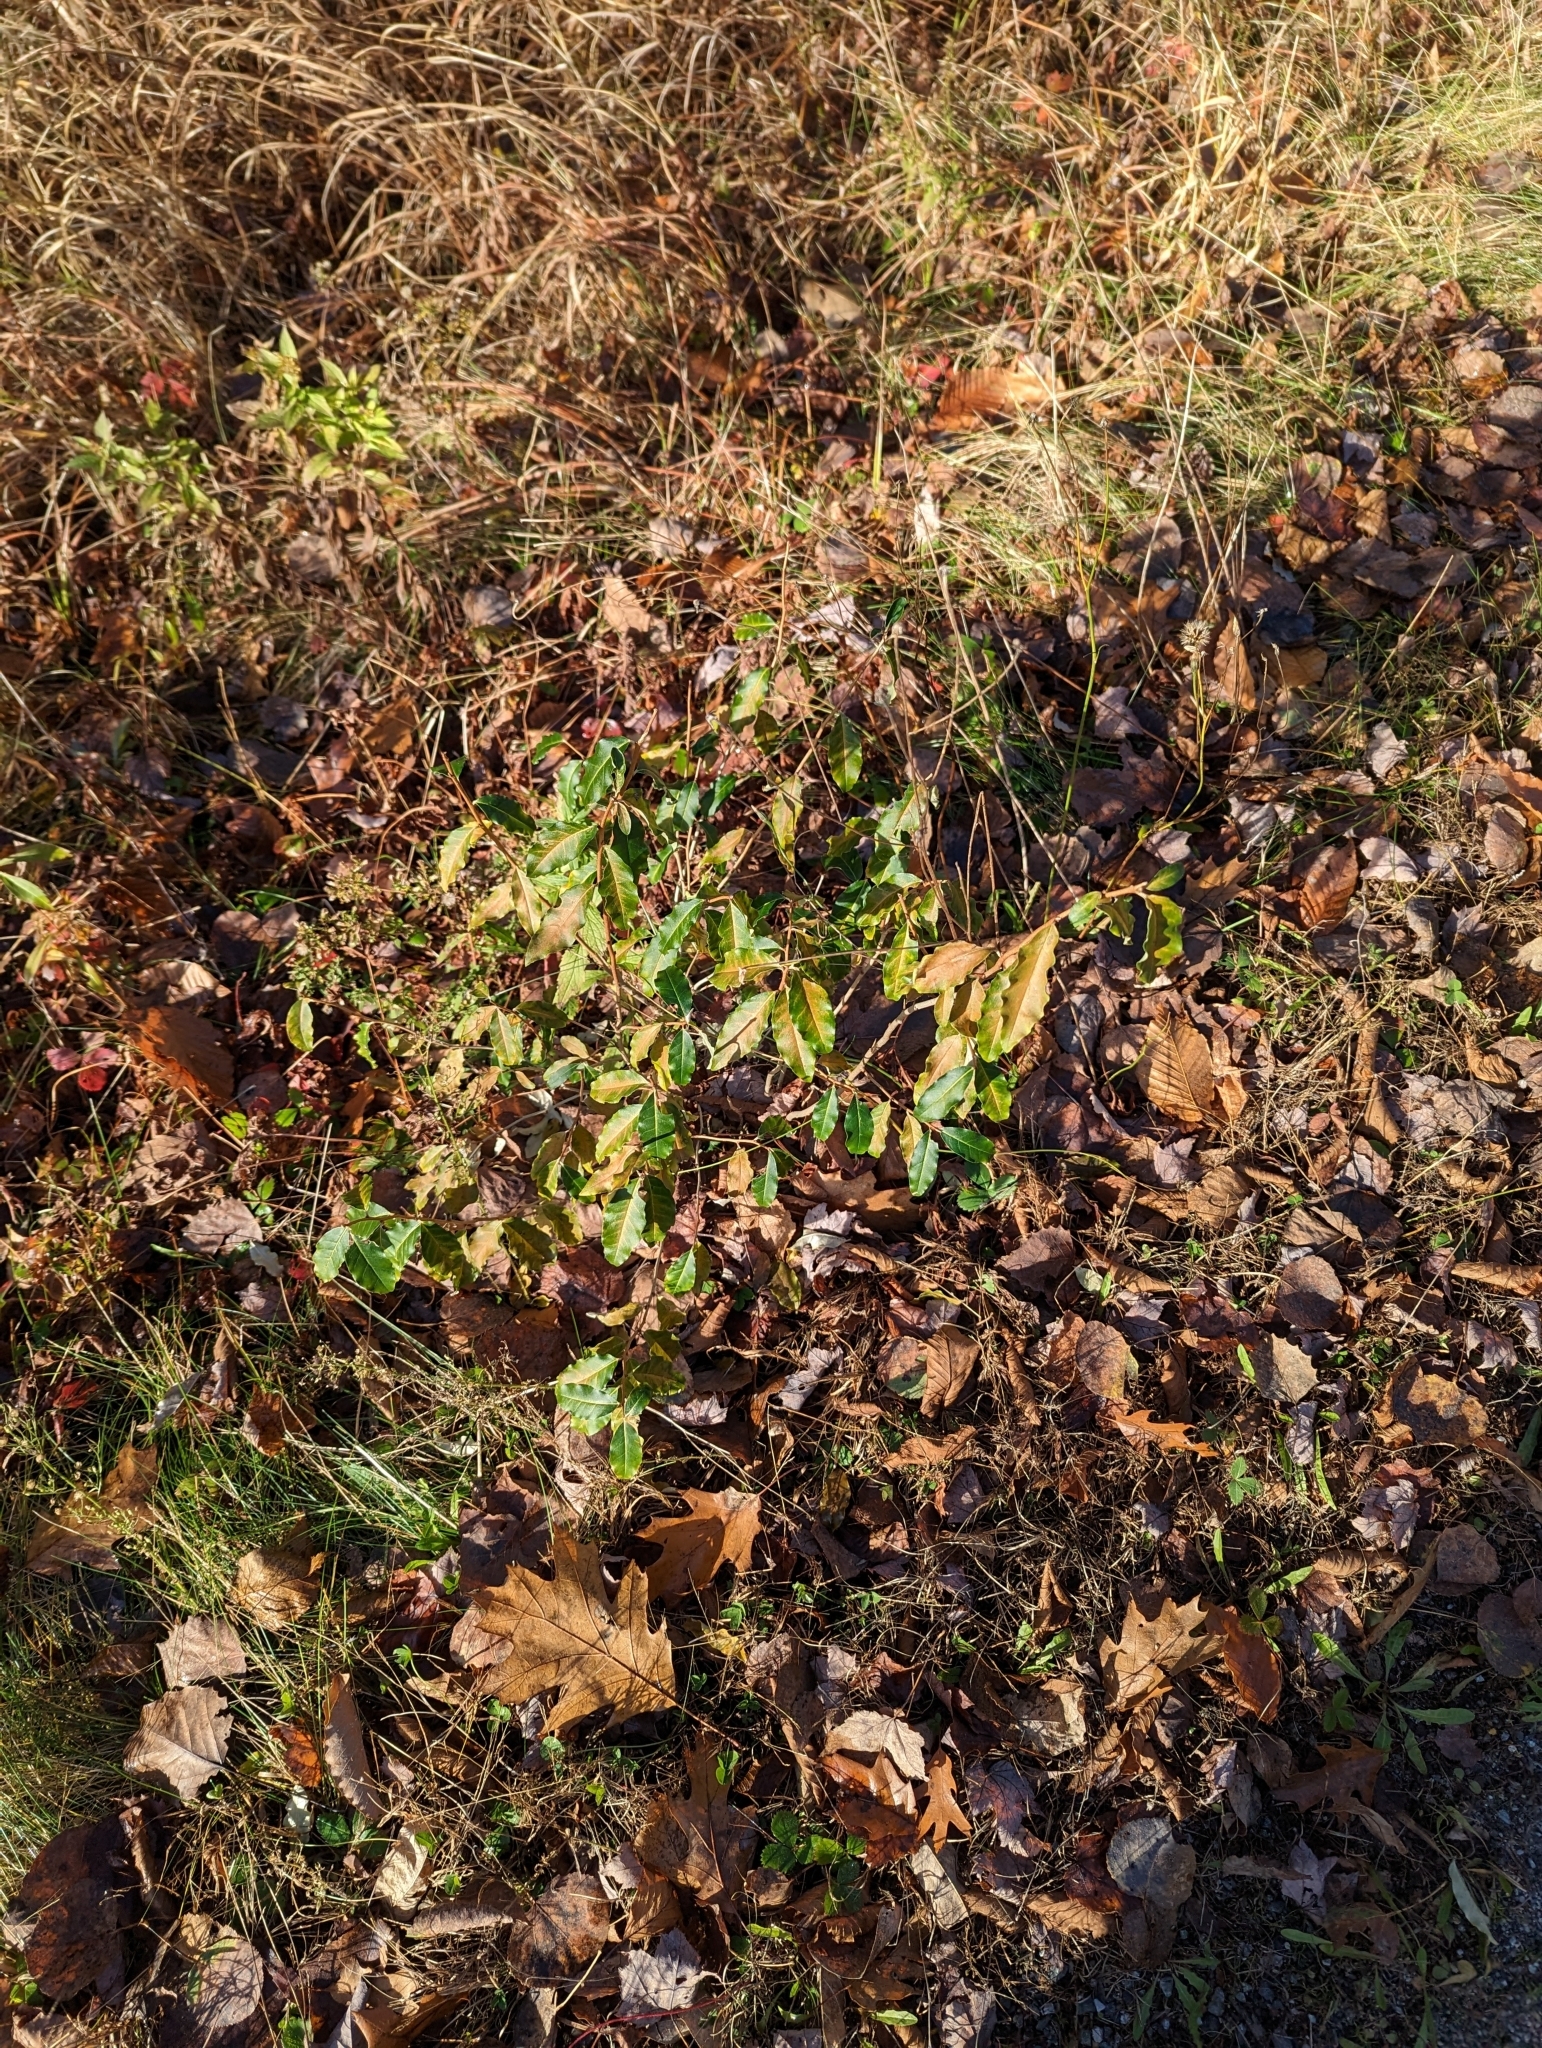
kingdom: Plantae
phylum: Tracheophyta
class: Magnoliopsida
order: Rosales
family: Elaeagnaceae
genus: Elaeagnus
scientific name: Elaeagnus umbellata
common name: Autumn olive
